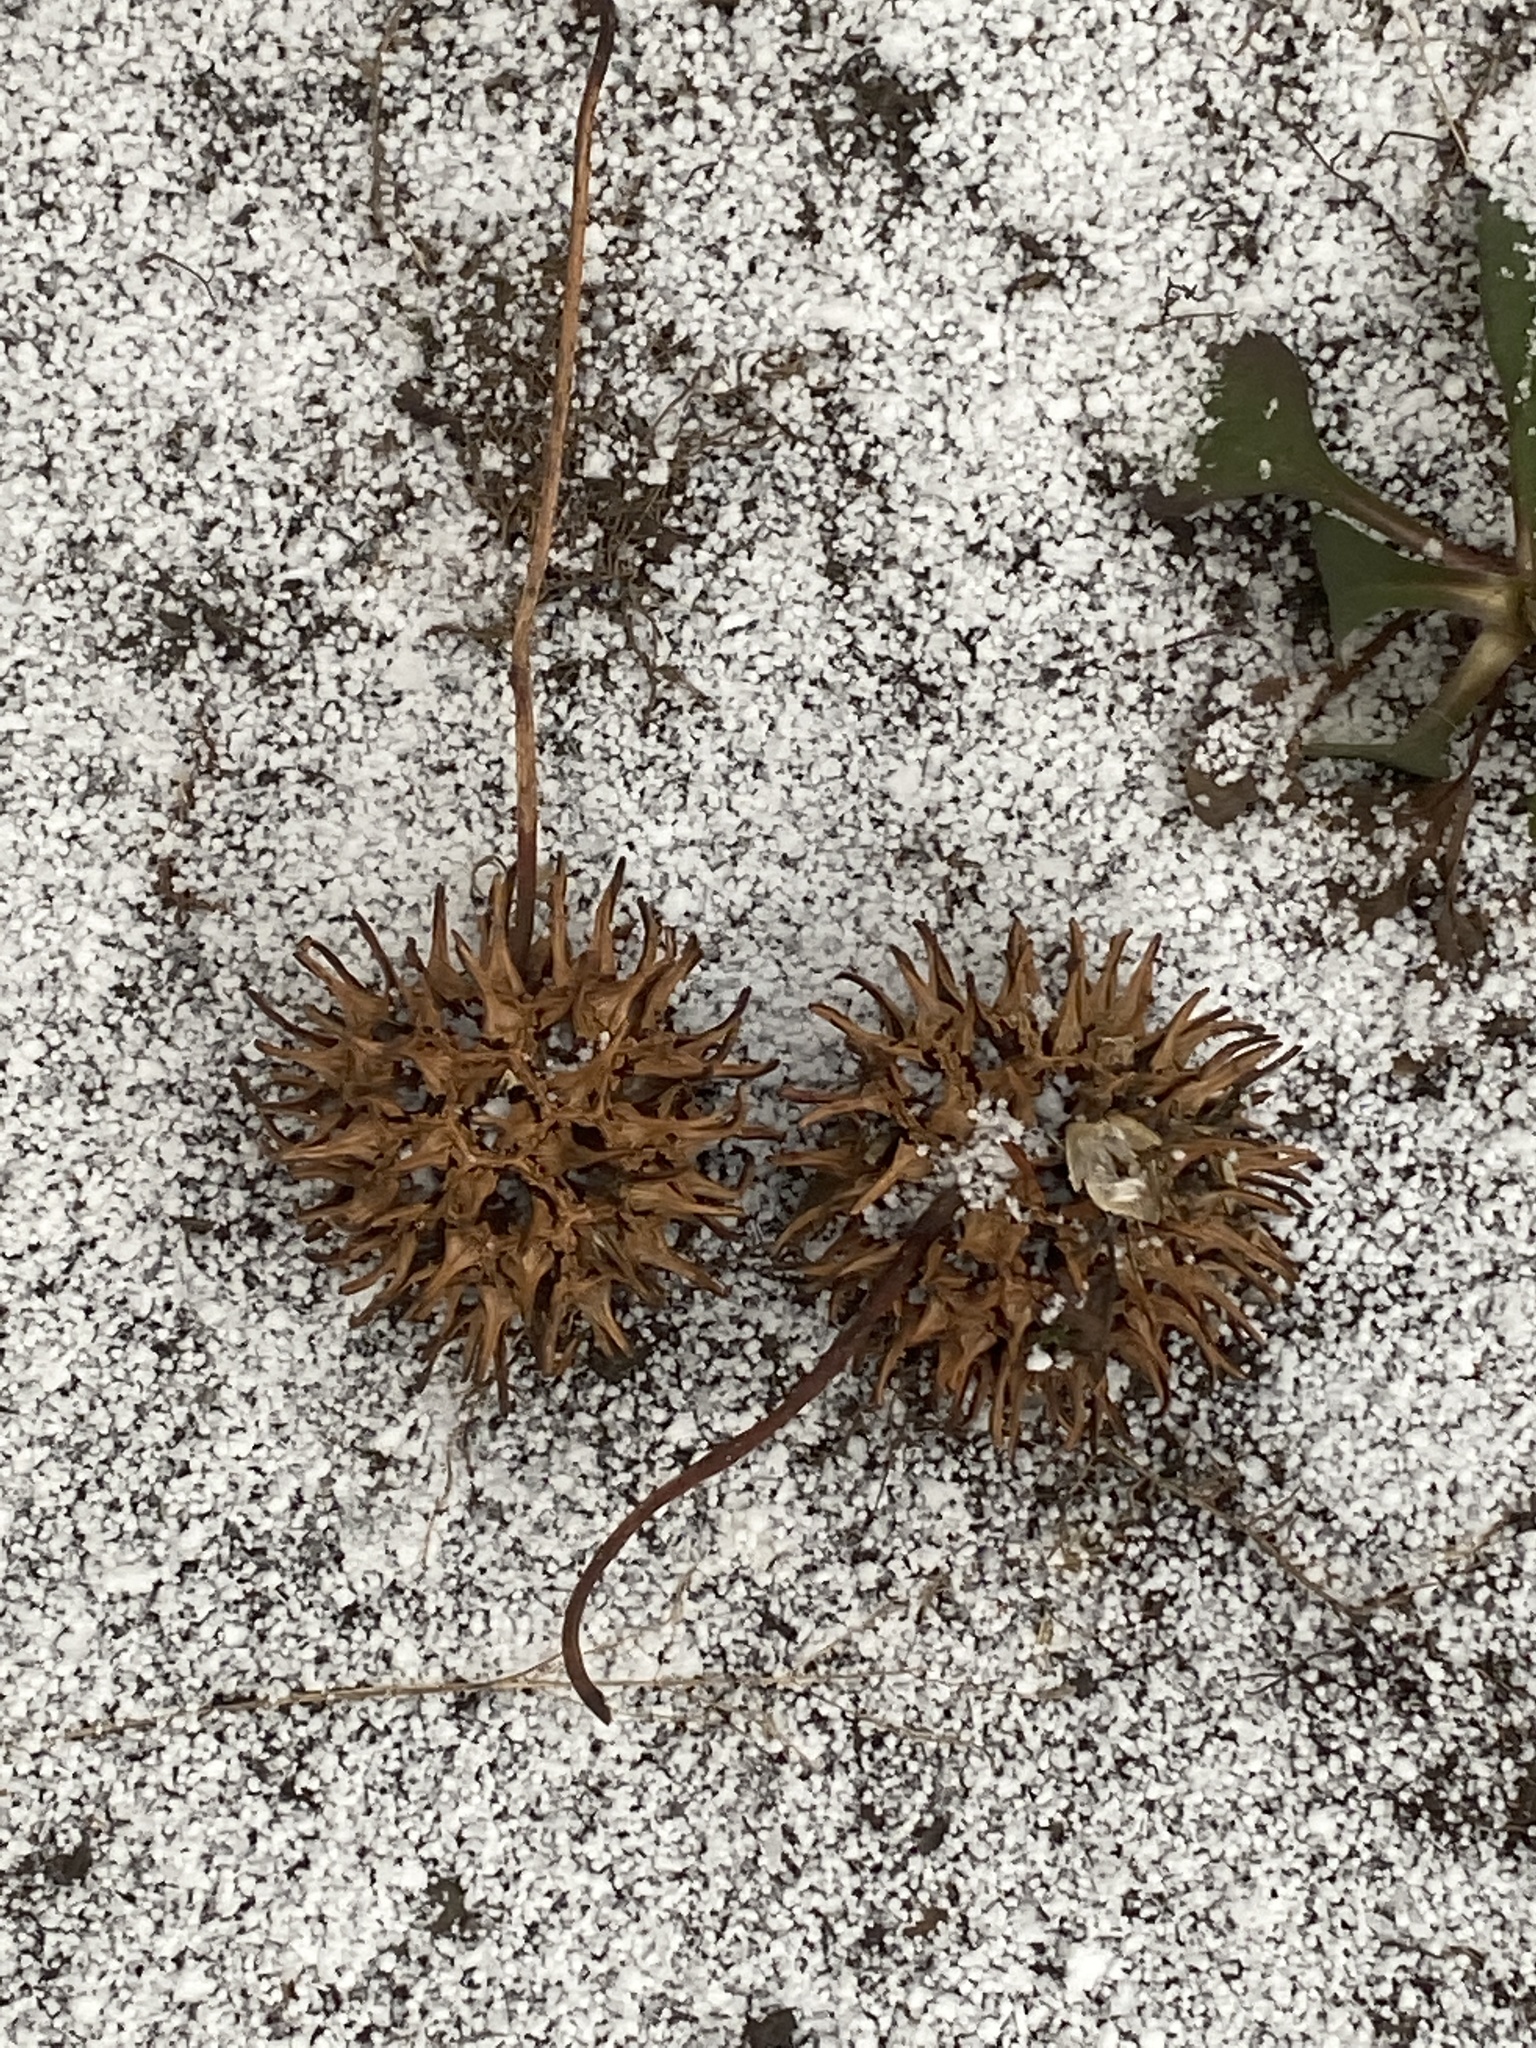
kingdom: Plantae
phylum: Tracheophyta
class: Magnoliopsida
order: Saxifragales
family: Altingiaceae
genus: Liquidambar
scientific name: Liquidambar styraciflua
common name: Sweet gum
